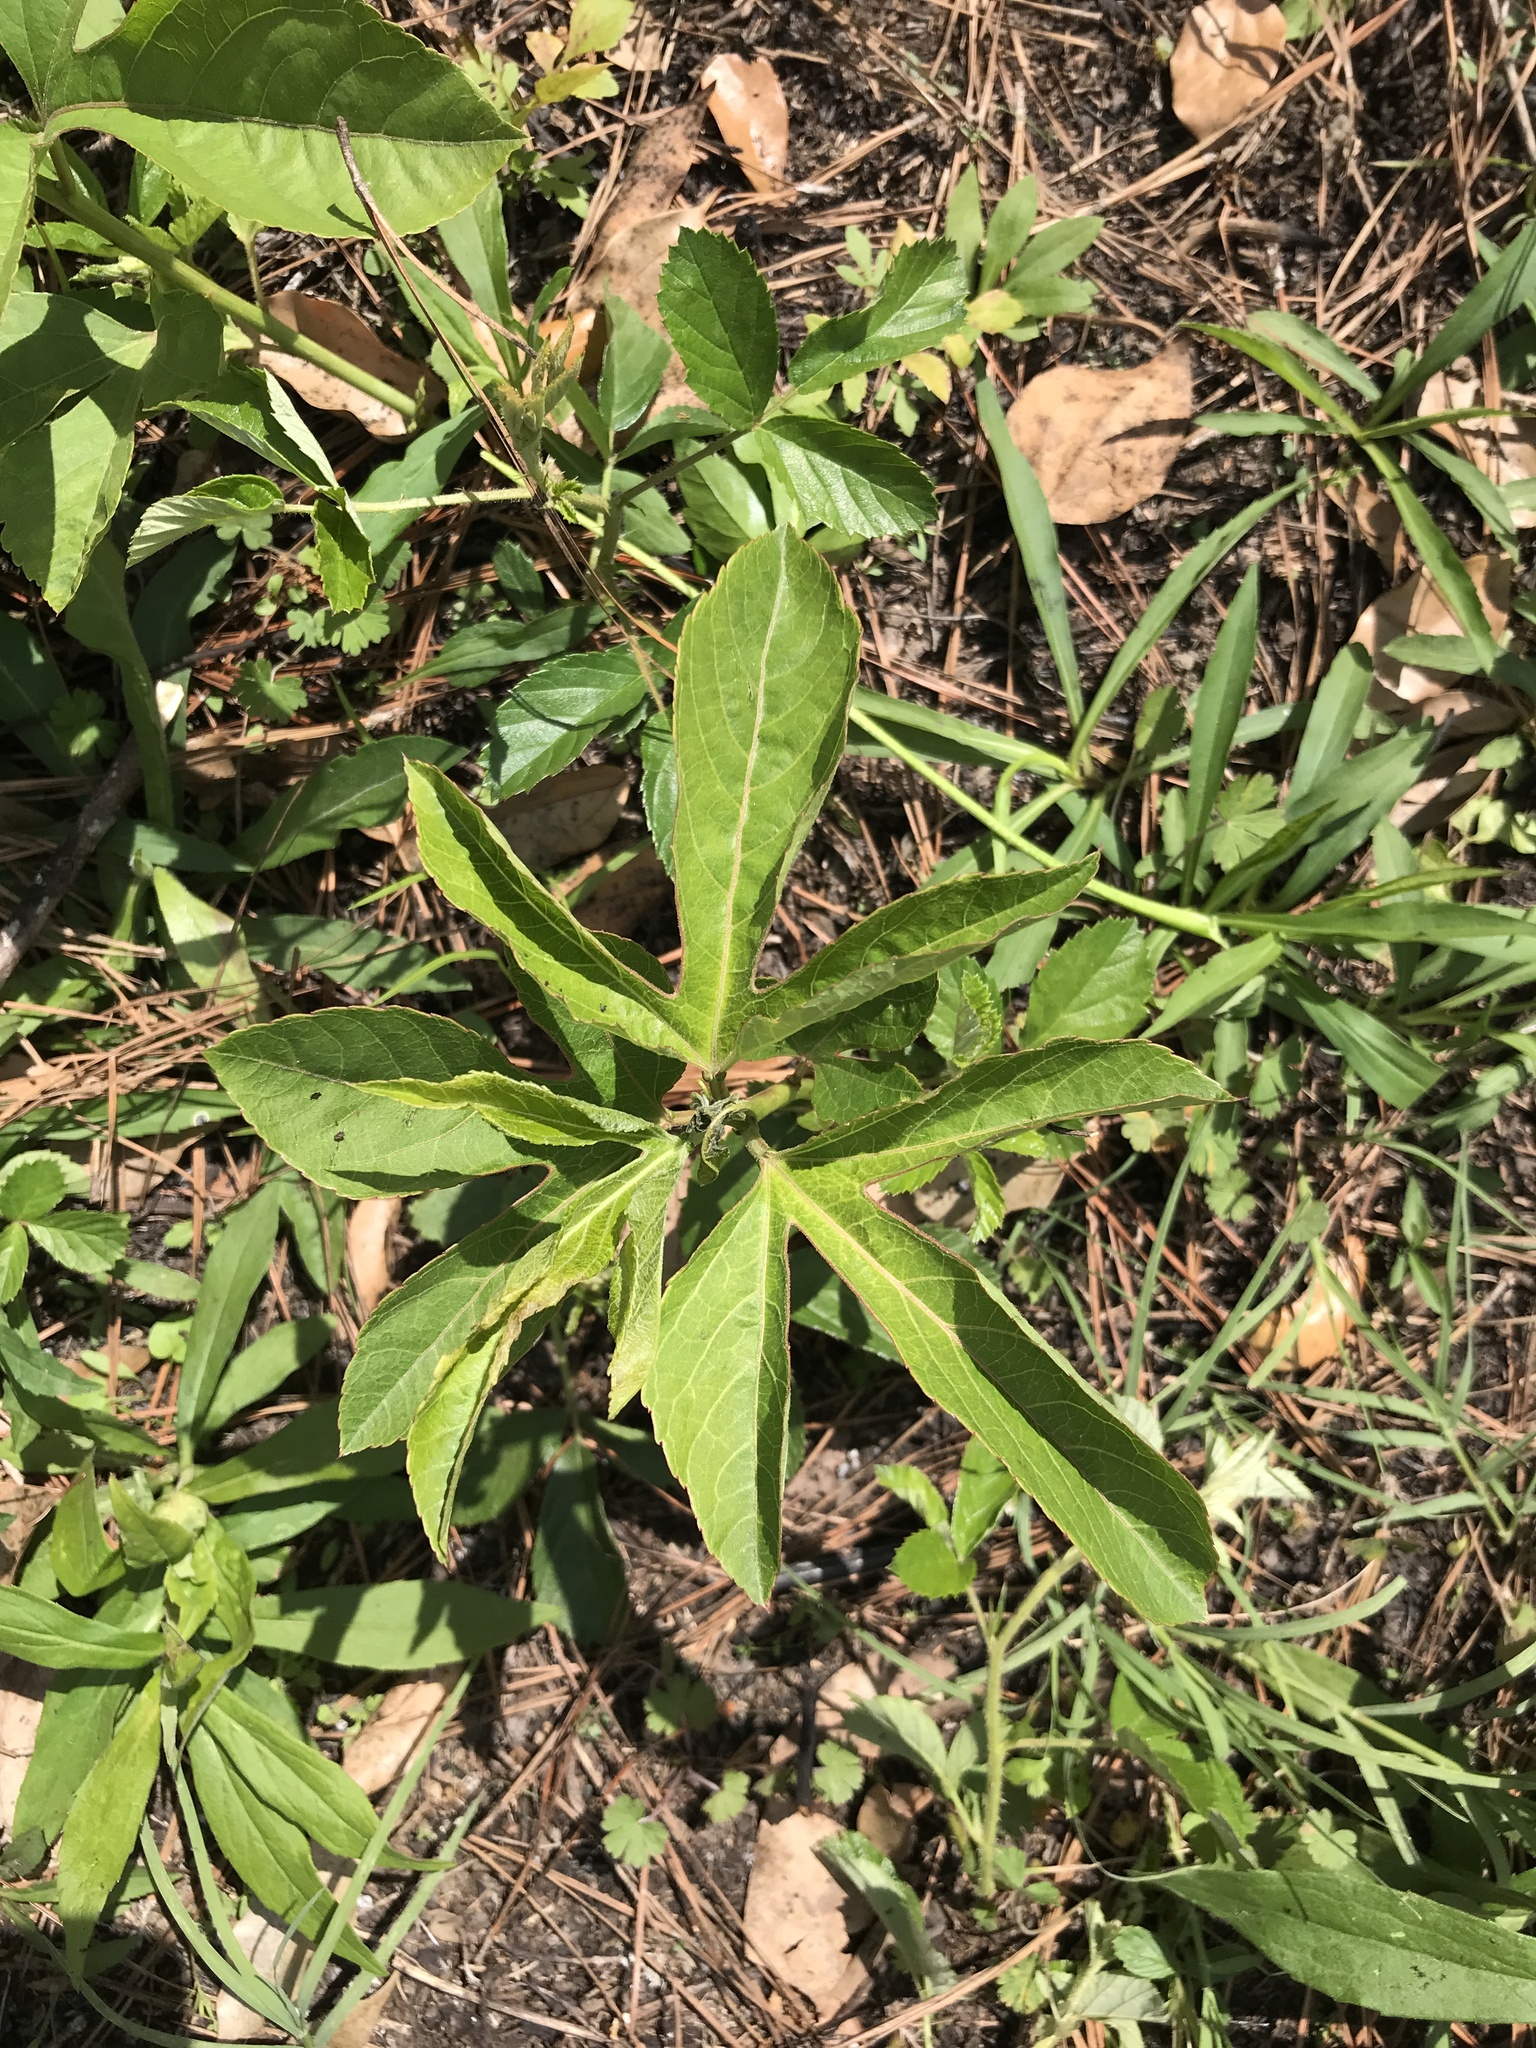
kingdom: Plantae
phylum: Tracheophyta
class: Magnoliopsida
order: Malpighiales
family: Passifloraceae
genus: Passiflora
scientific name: Passiflora incarnata
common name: Apricot-vine
